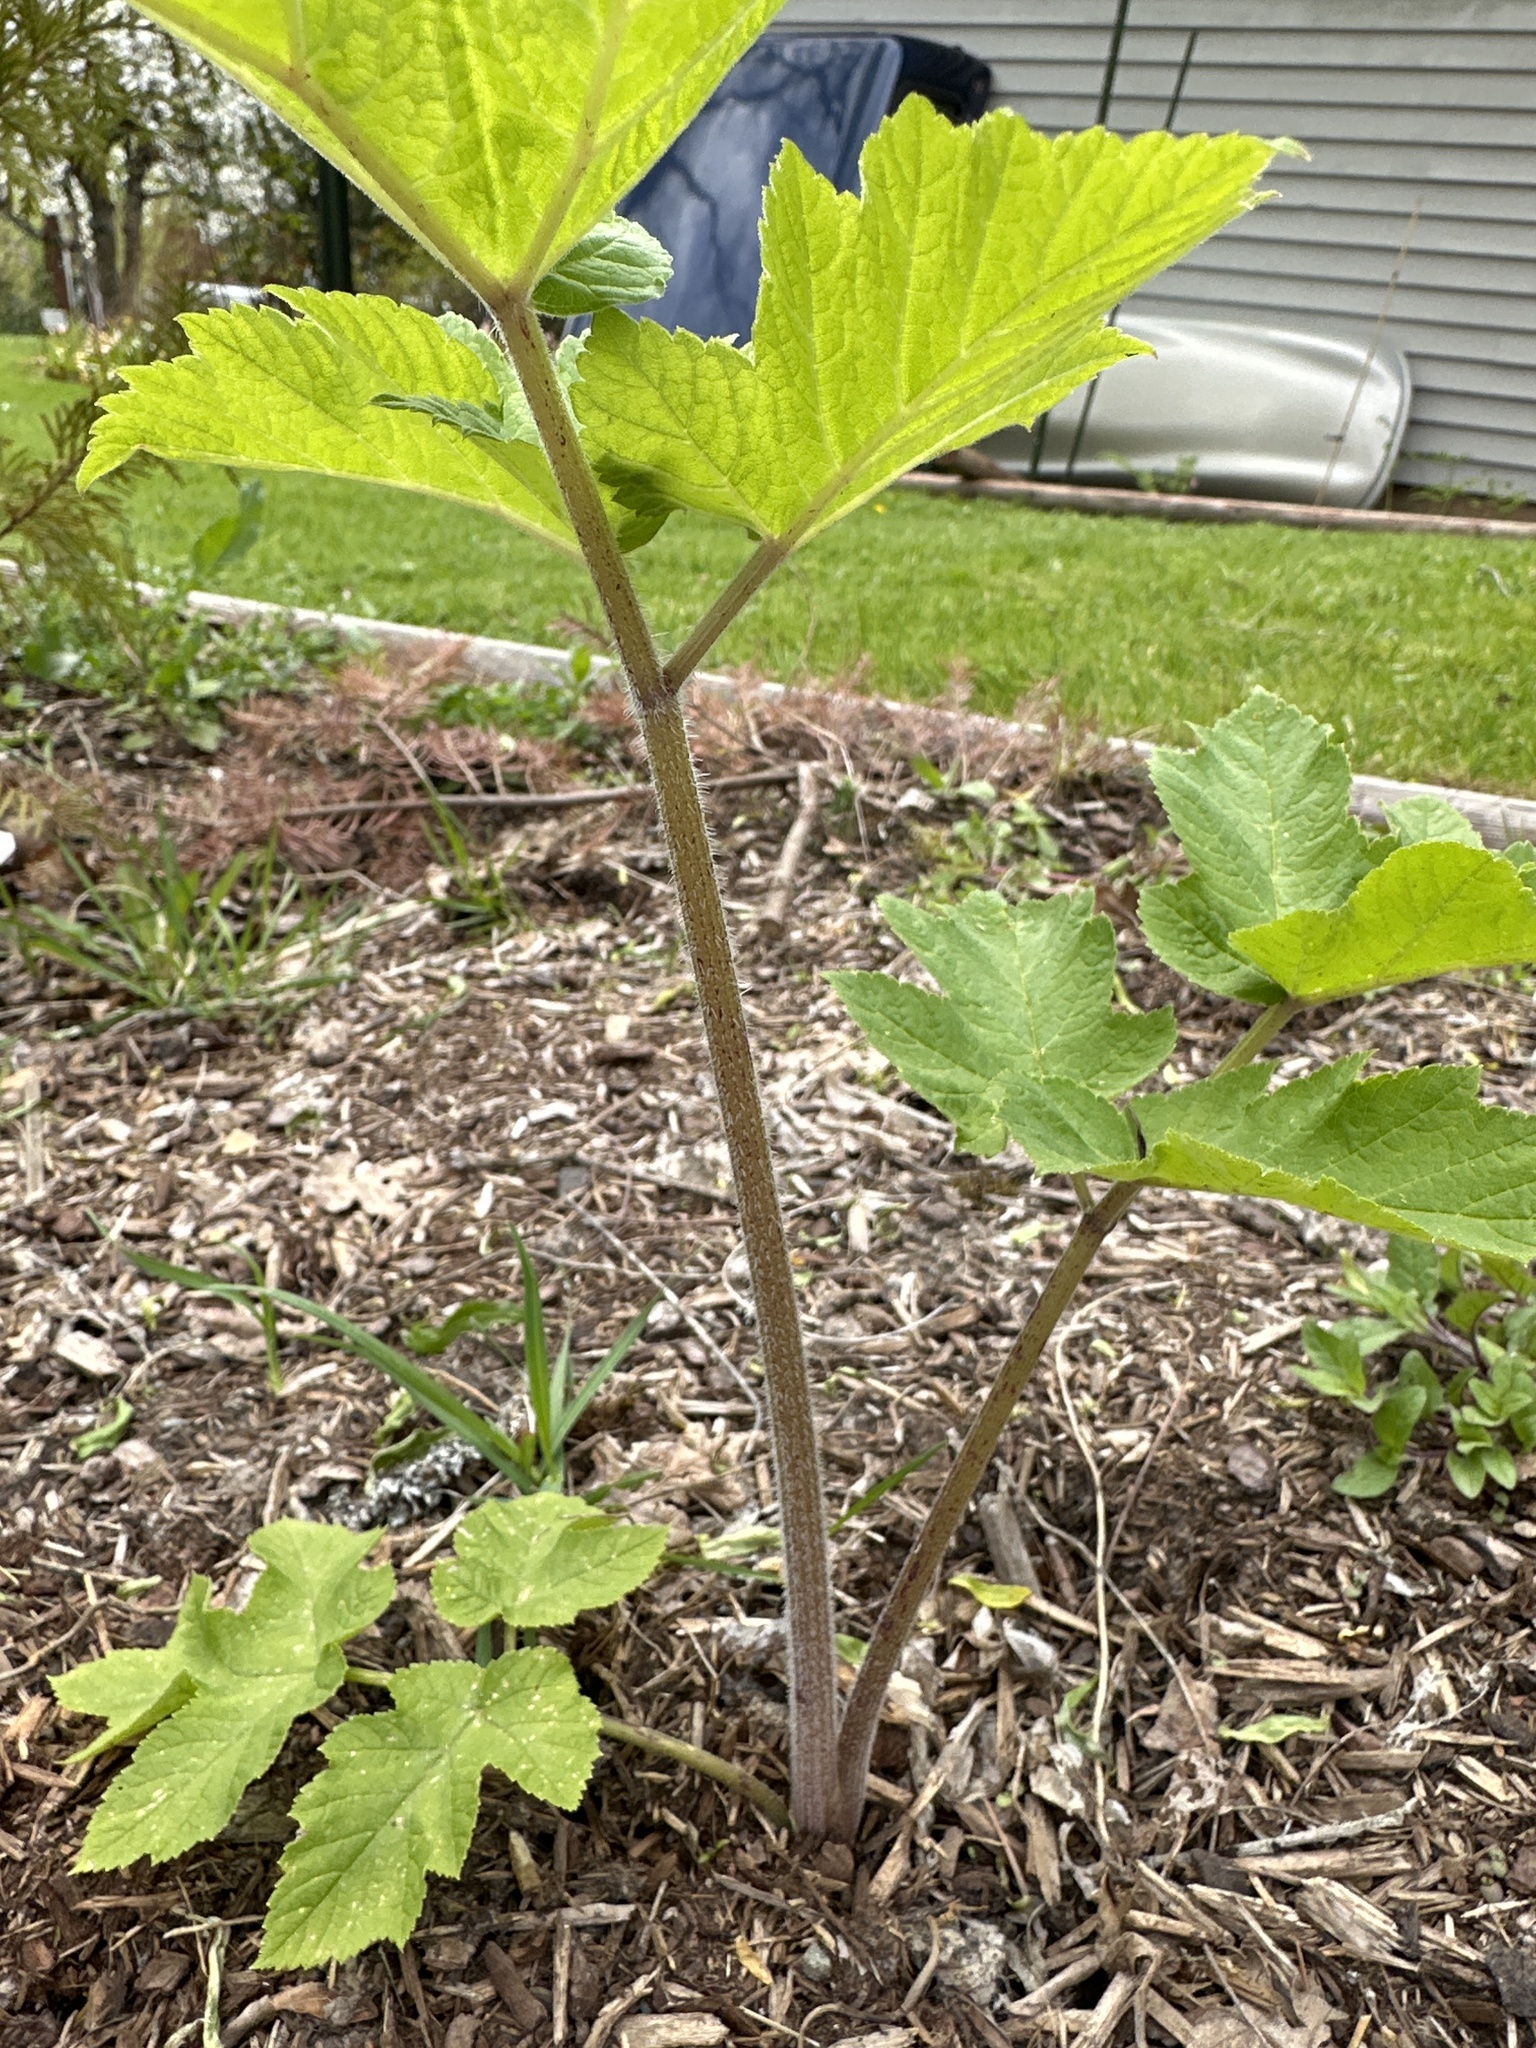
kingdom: Plantae
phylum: Tracheophyta
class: Magnoliopsida
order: Apiales
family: Apiaceae
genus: Heracleum
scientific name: Heracleum maximum
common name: American cow parsnip
